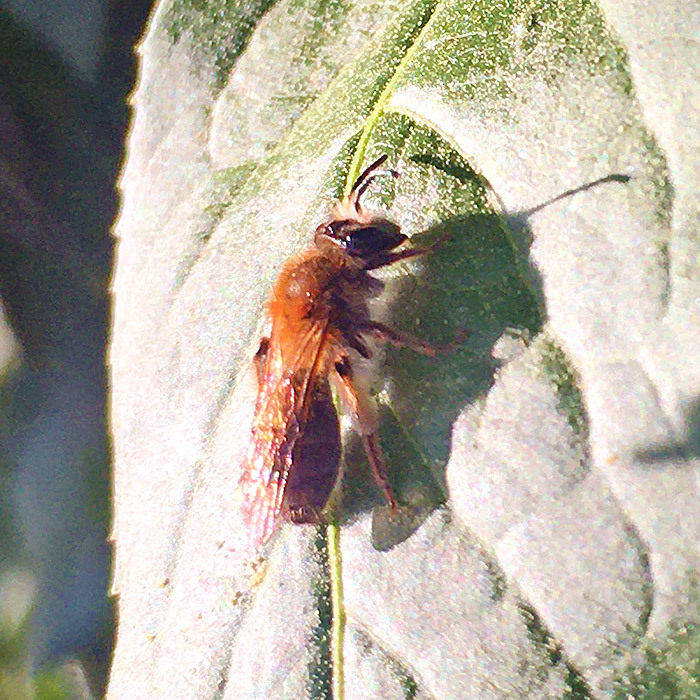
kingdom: Animalia
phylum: Arthropoda
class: Insecta
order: Hymenoptera
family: Andrenidae
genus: Andrena
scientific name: Andrena haemorrhoa
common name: Early mining bee
